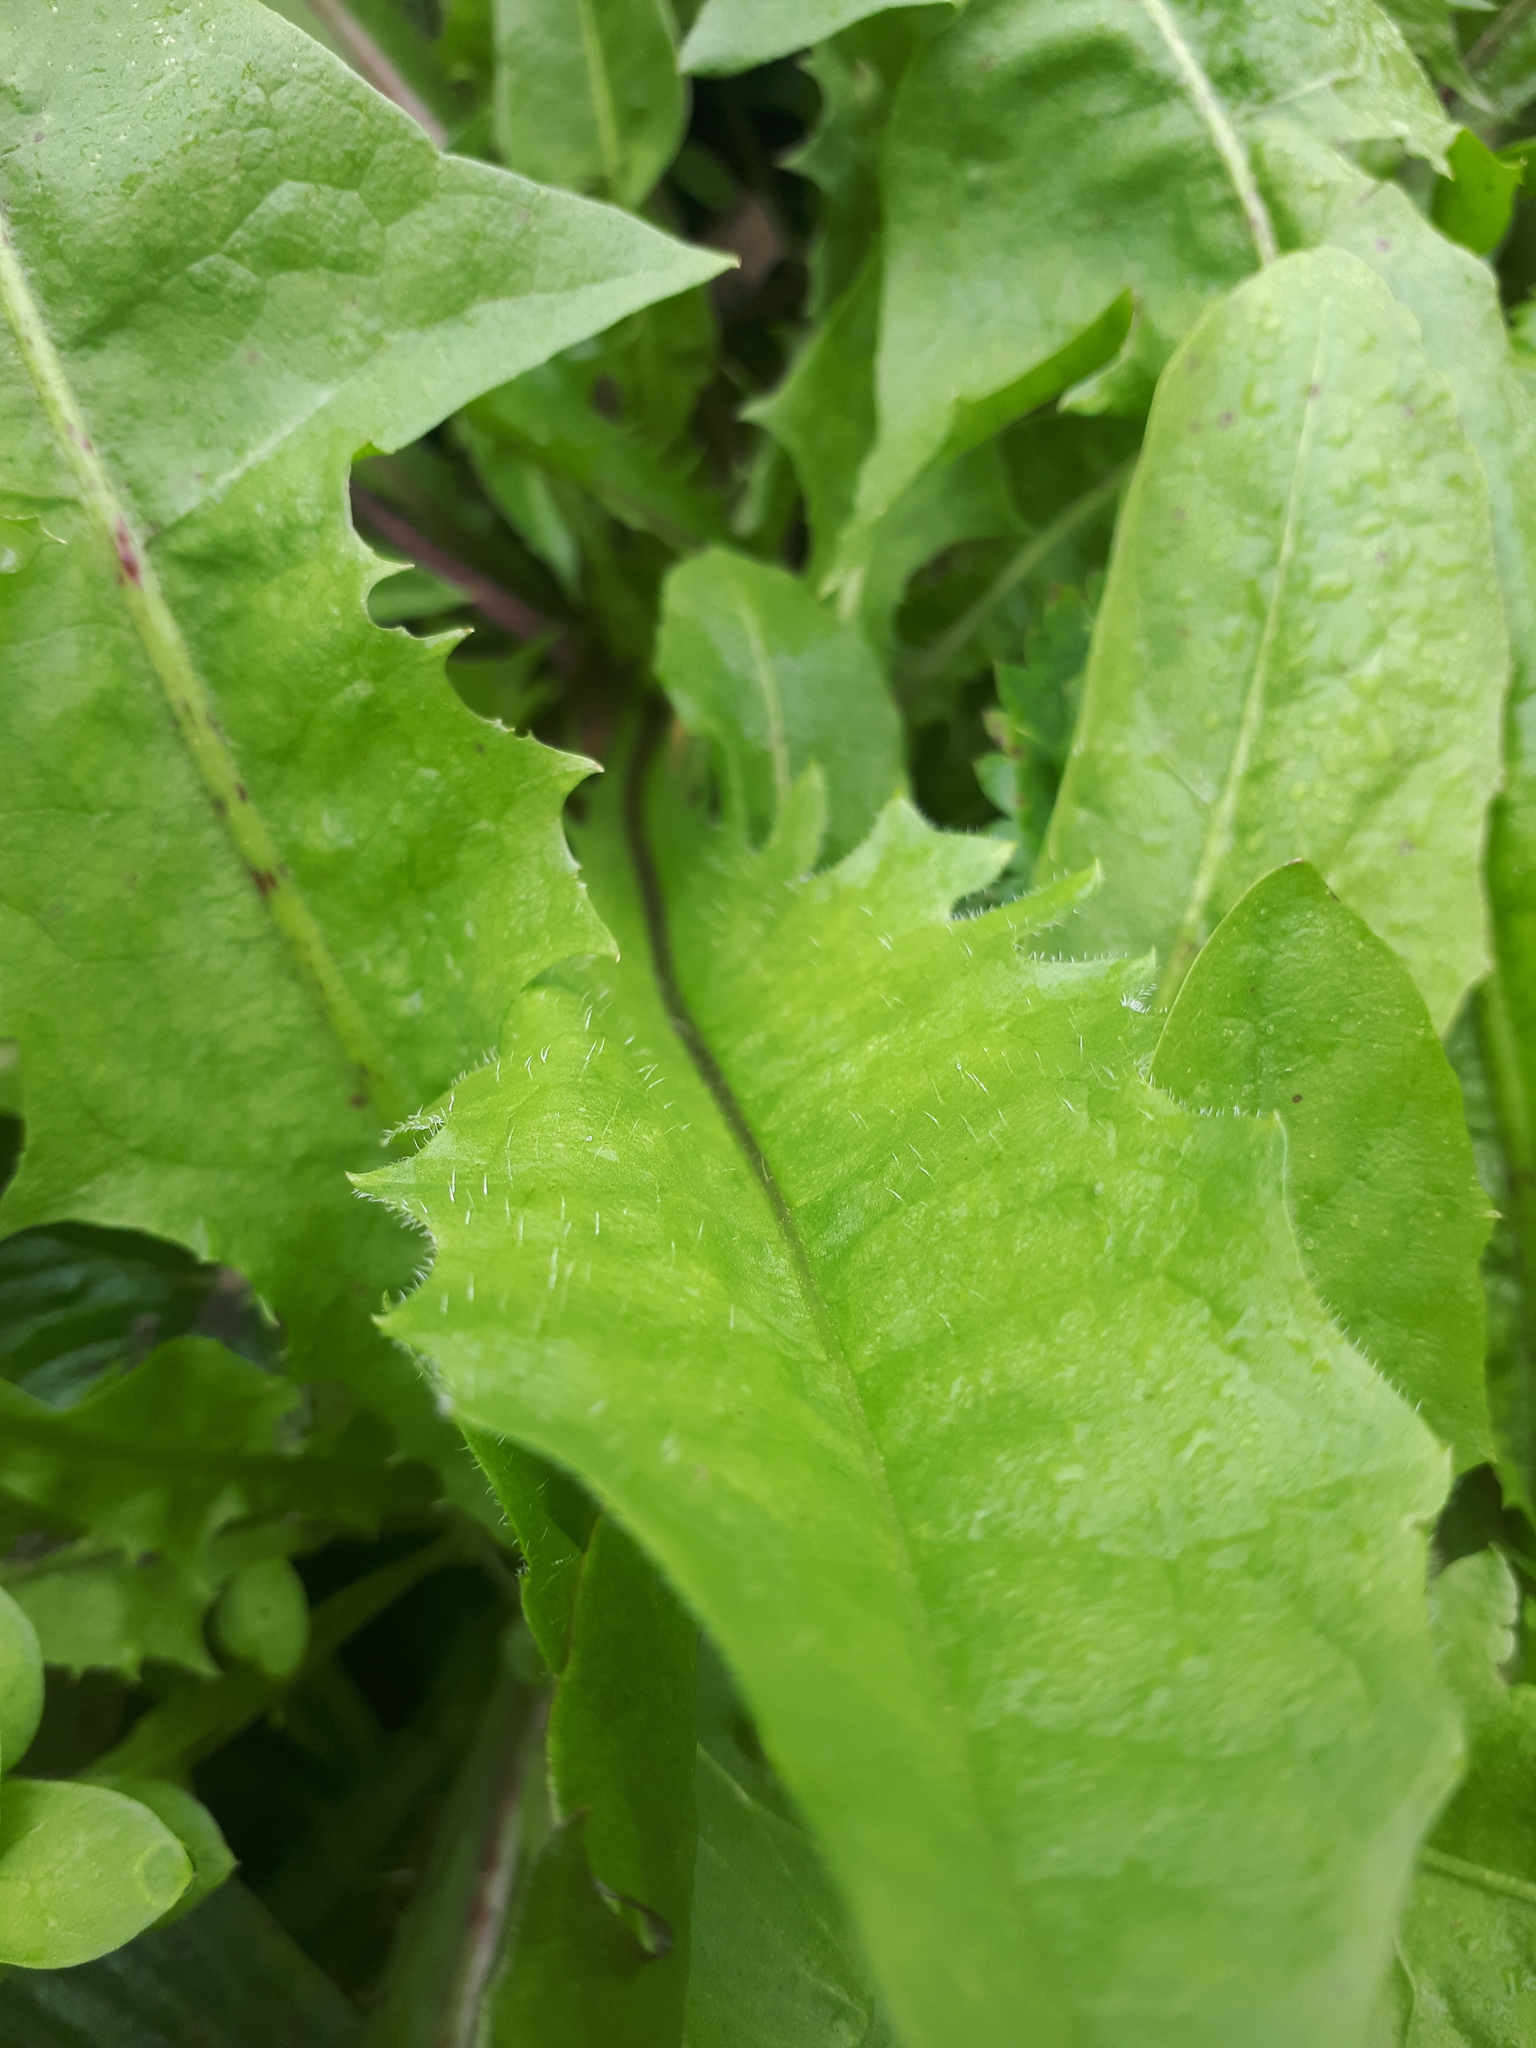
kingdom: Plantae
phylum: Tracheophyta
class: Magnoliopsida
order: Asterales
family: Asteraceae
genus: Taraxacum
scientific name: Taraxacum officinale
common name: Common dandelion
